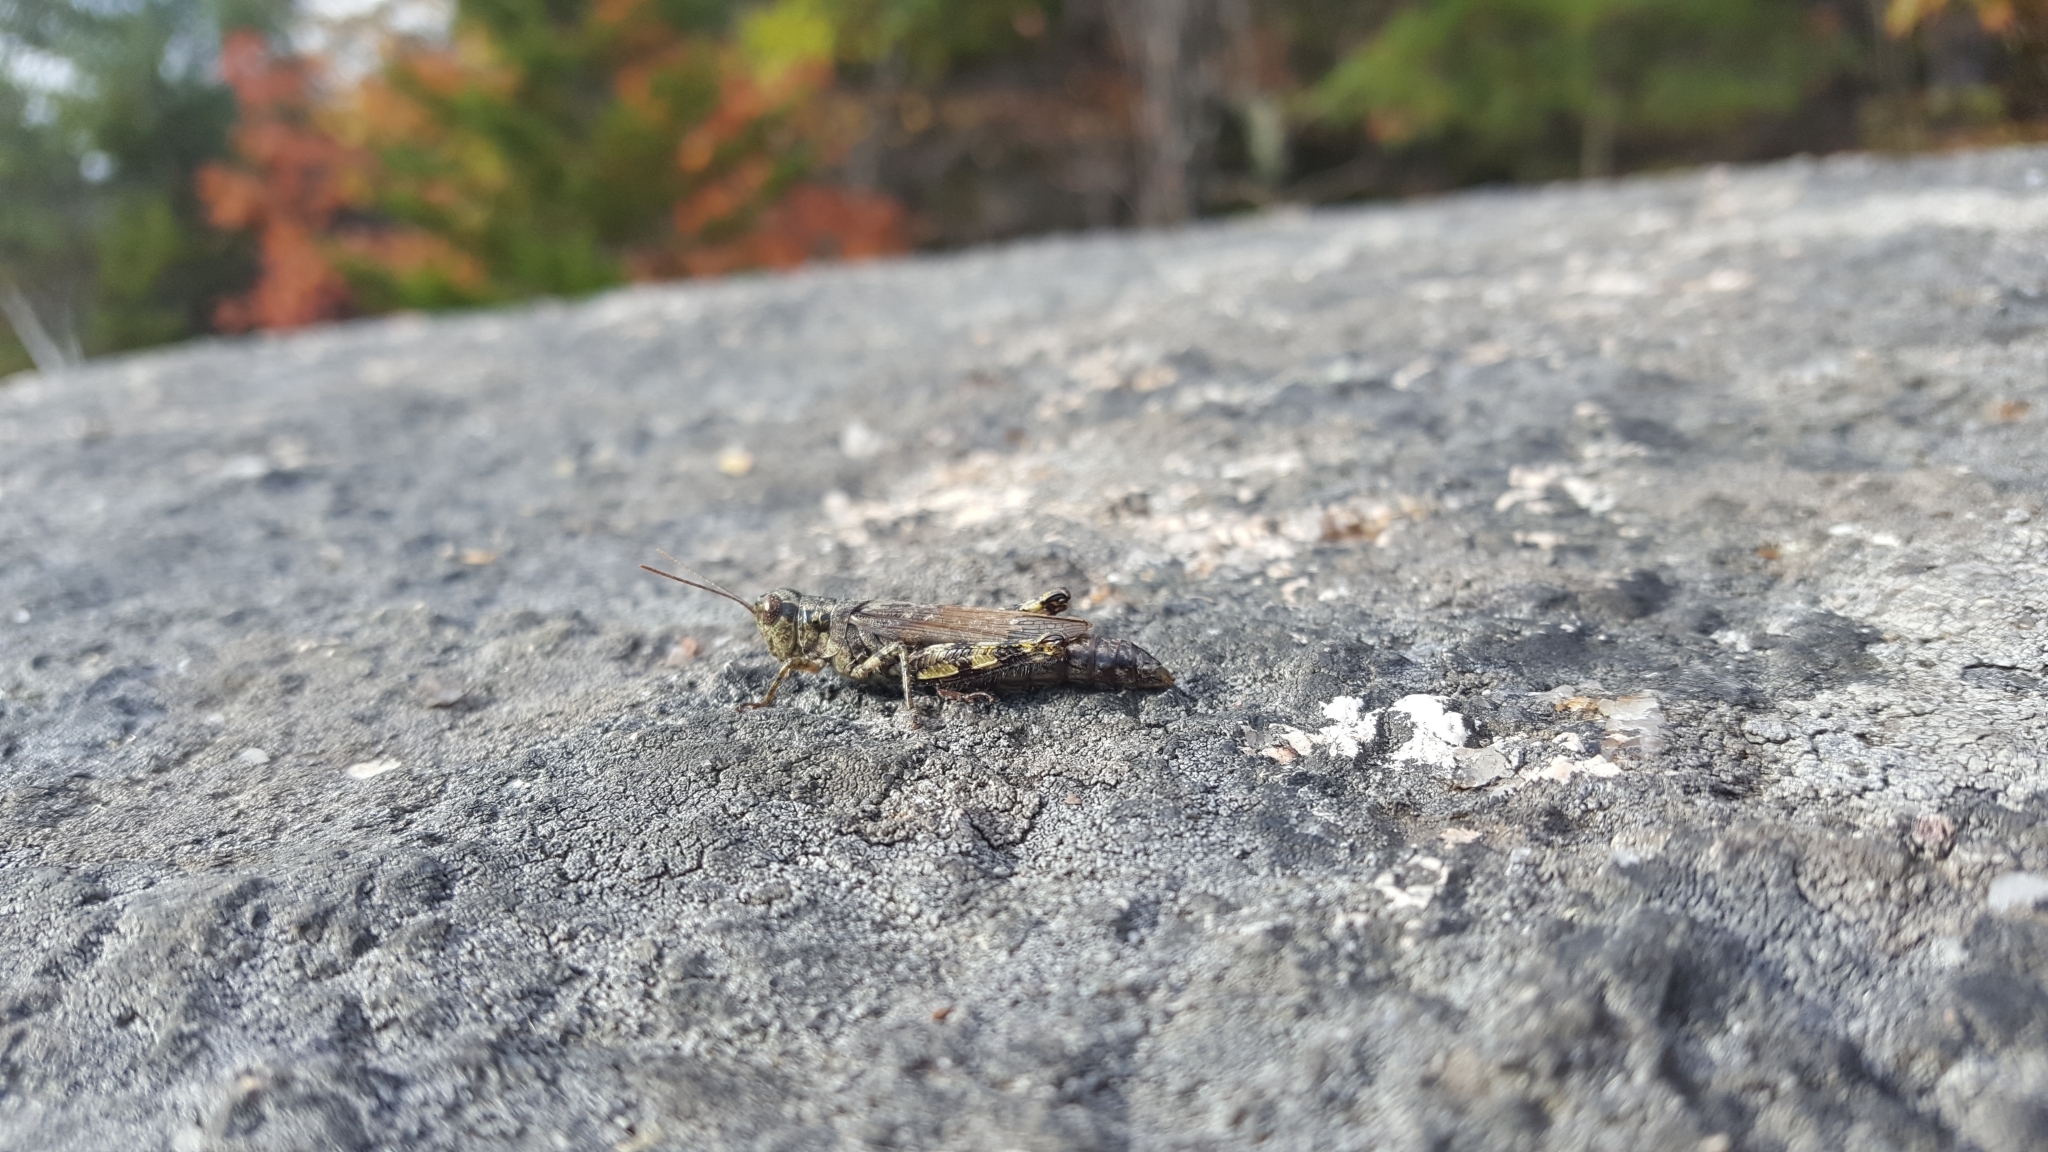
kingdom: Animalia
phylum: Arthropoda
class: Insecta
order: Orthoptera
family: Acrididae
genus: Melanoplus
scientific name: Melanoplus punctulatus
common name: Pine-tree spur-throat grasshopper
